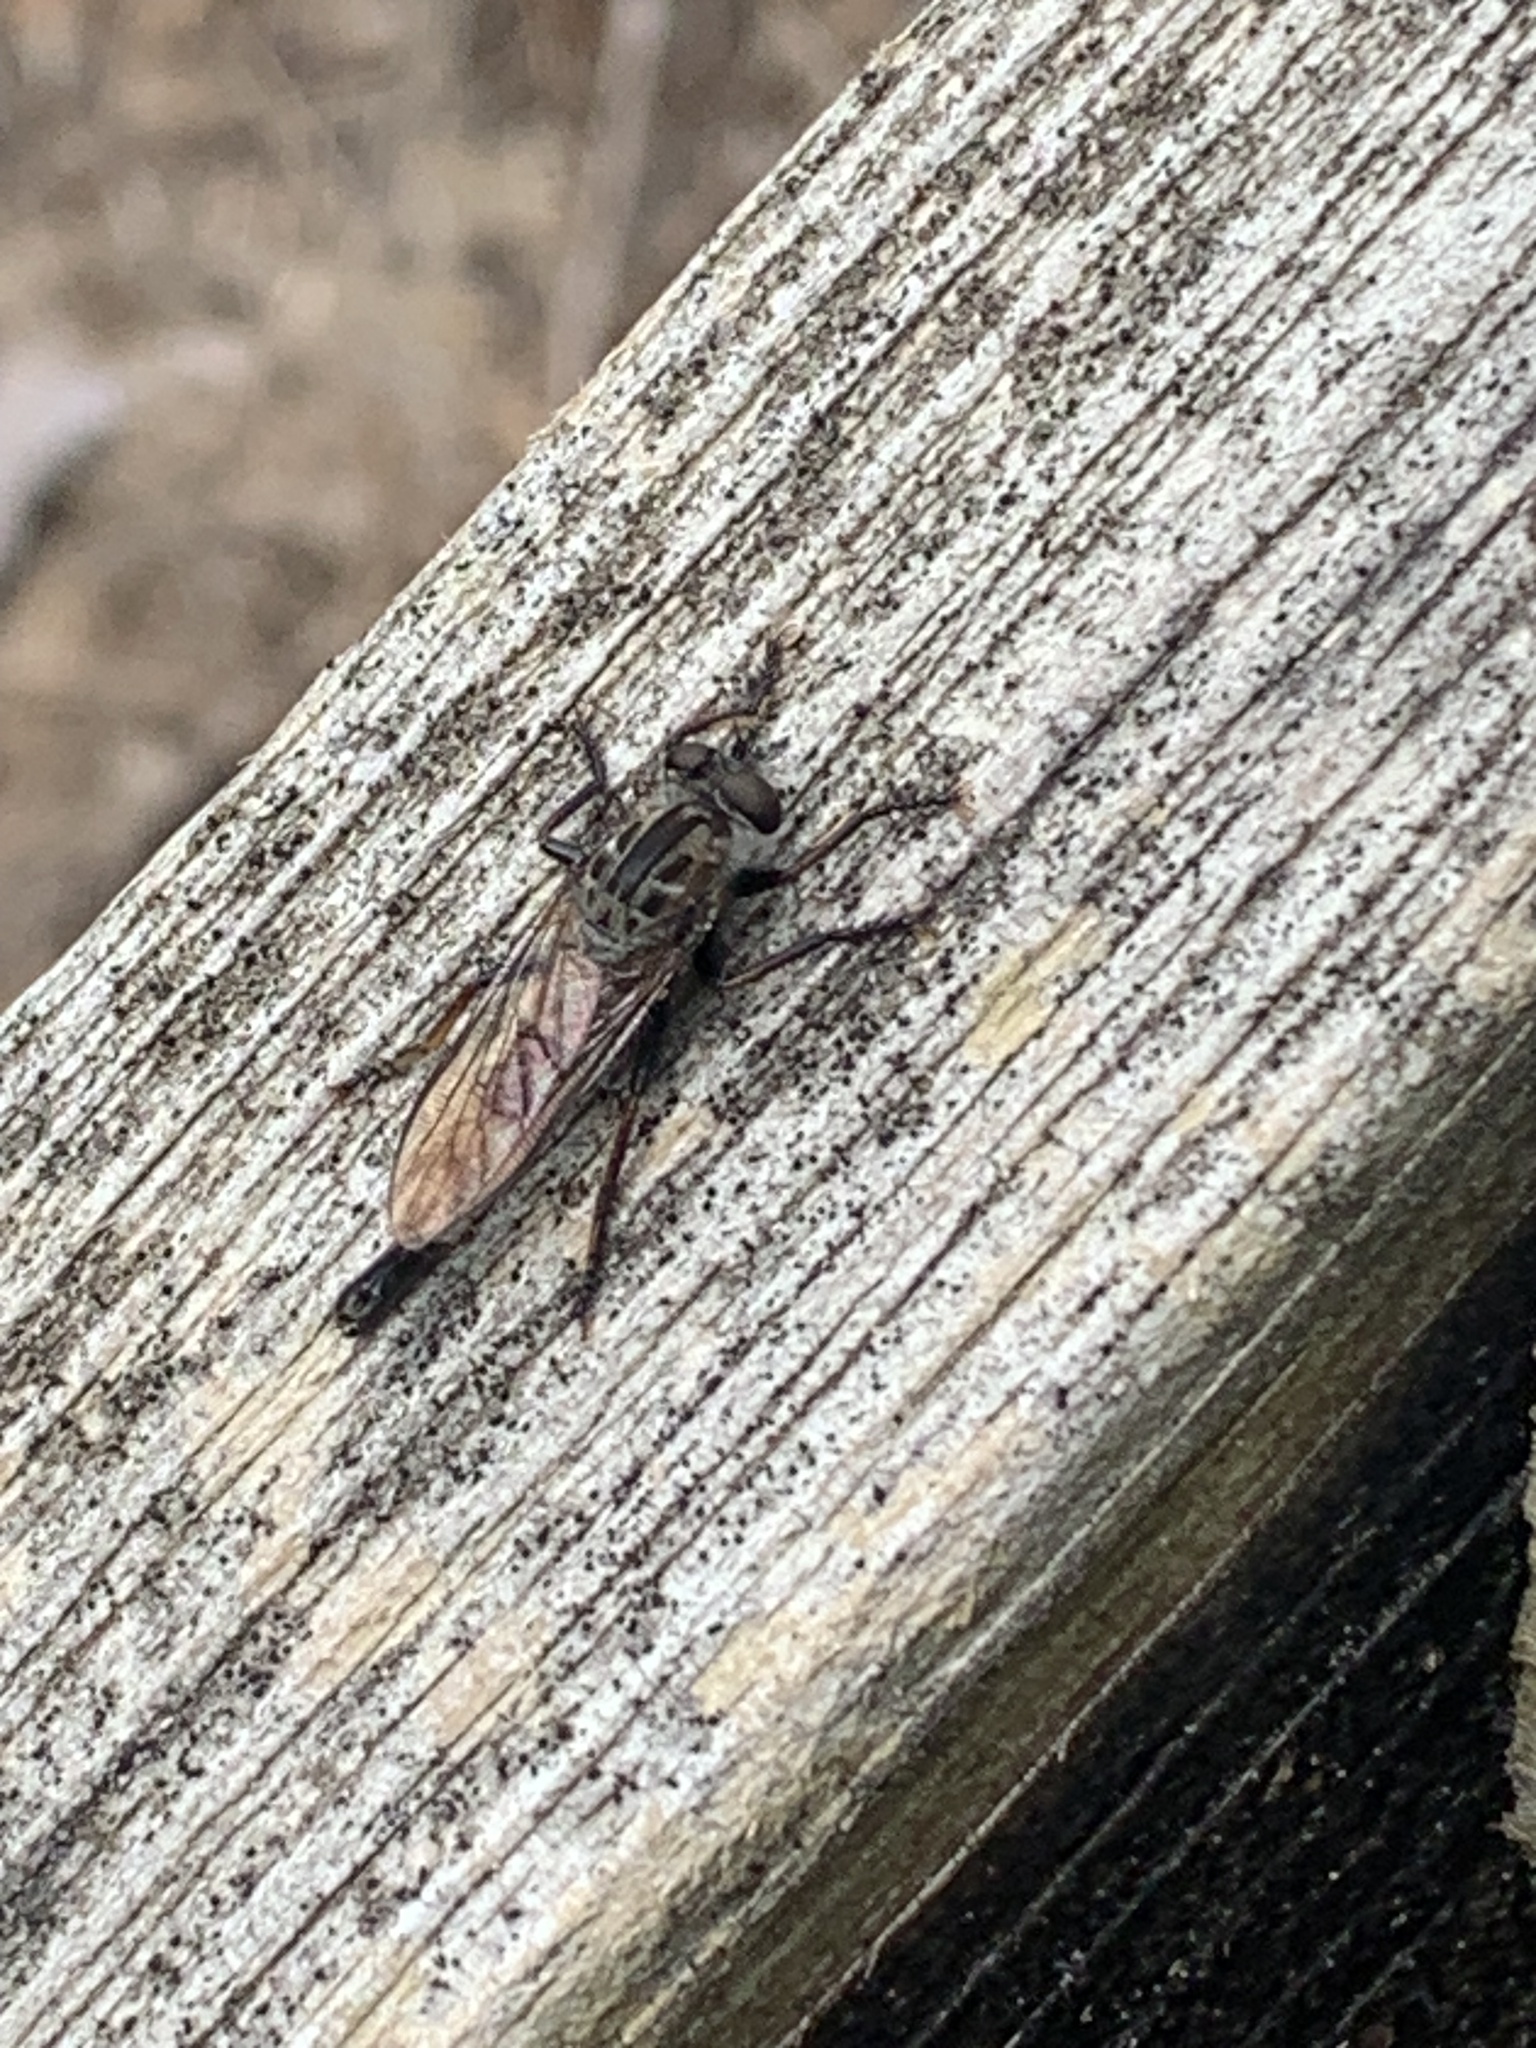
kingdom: Animalia
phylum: Arthropoda
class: Insecta
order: Diptera
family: Asilidae
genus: Efferia
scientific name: Efferia aestuans
